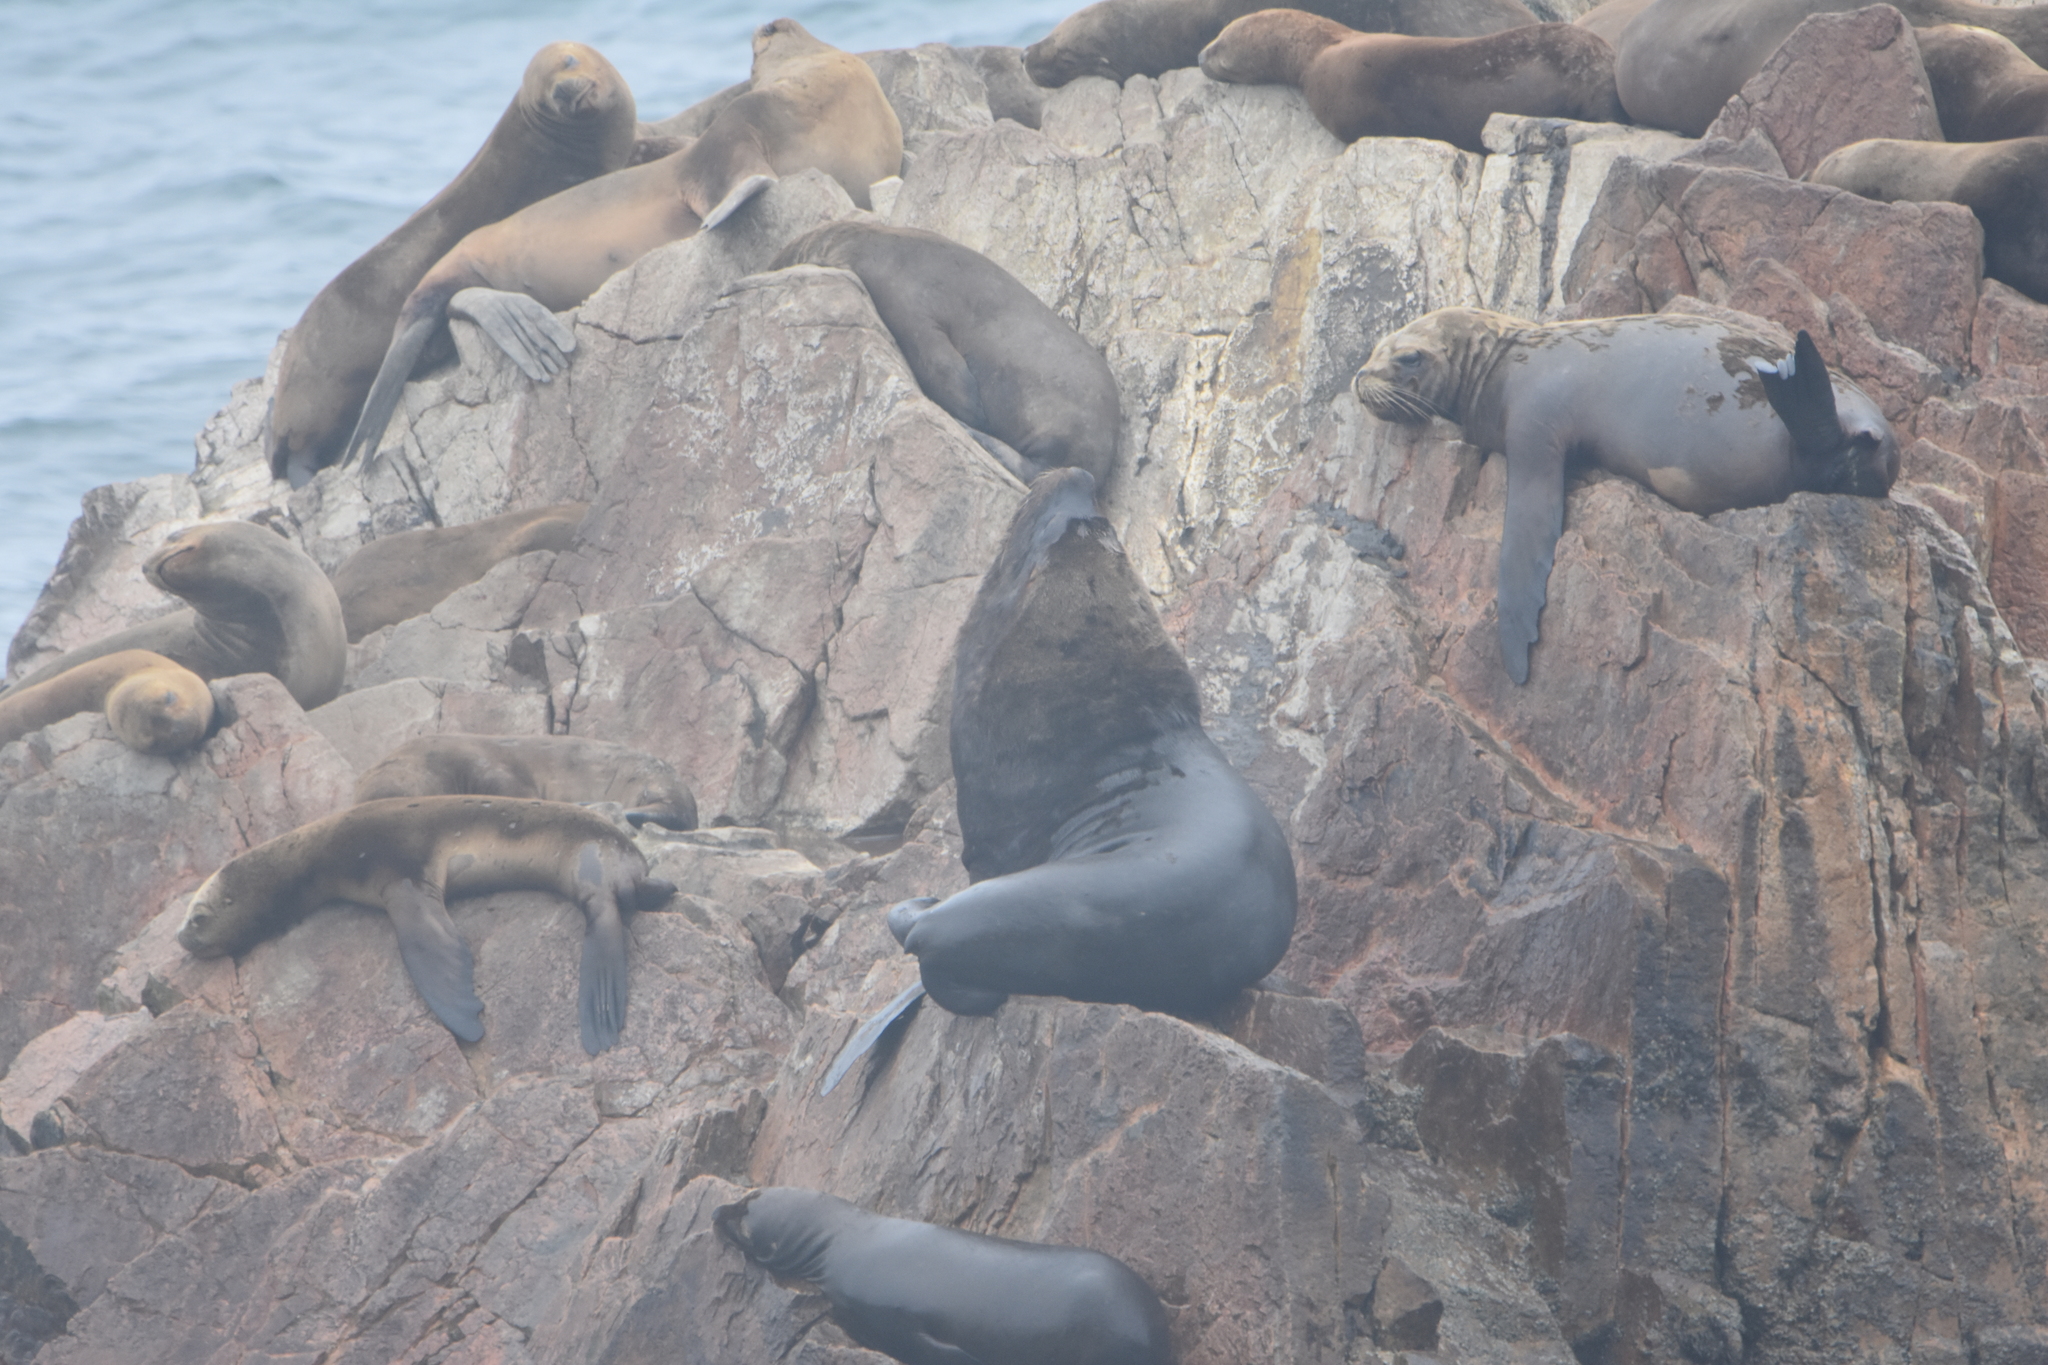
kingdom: Animalia
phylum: Chordata
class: Mammalia
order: Carnivora
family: Otariidae
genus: Otaria
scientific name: Otaria byronia
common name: South american sea lion
